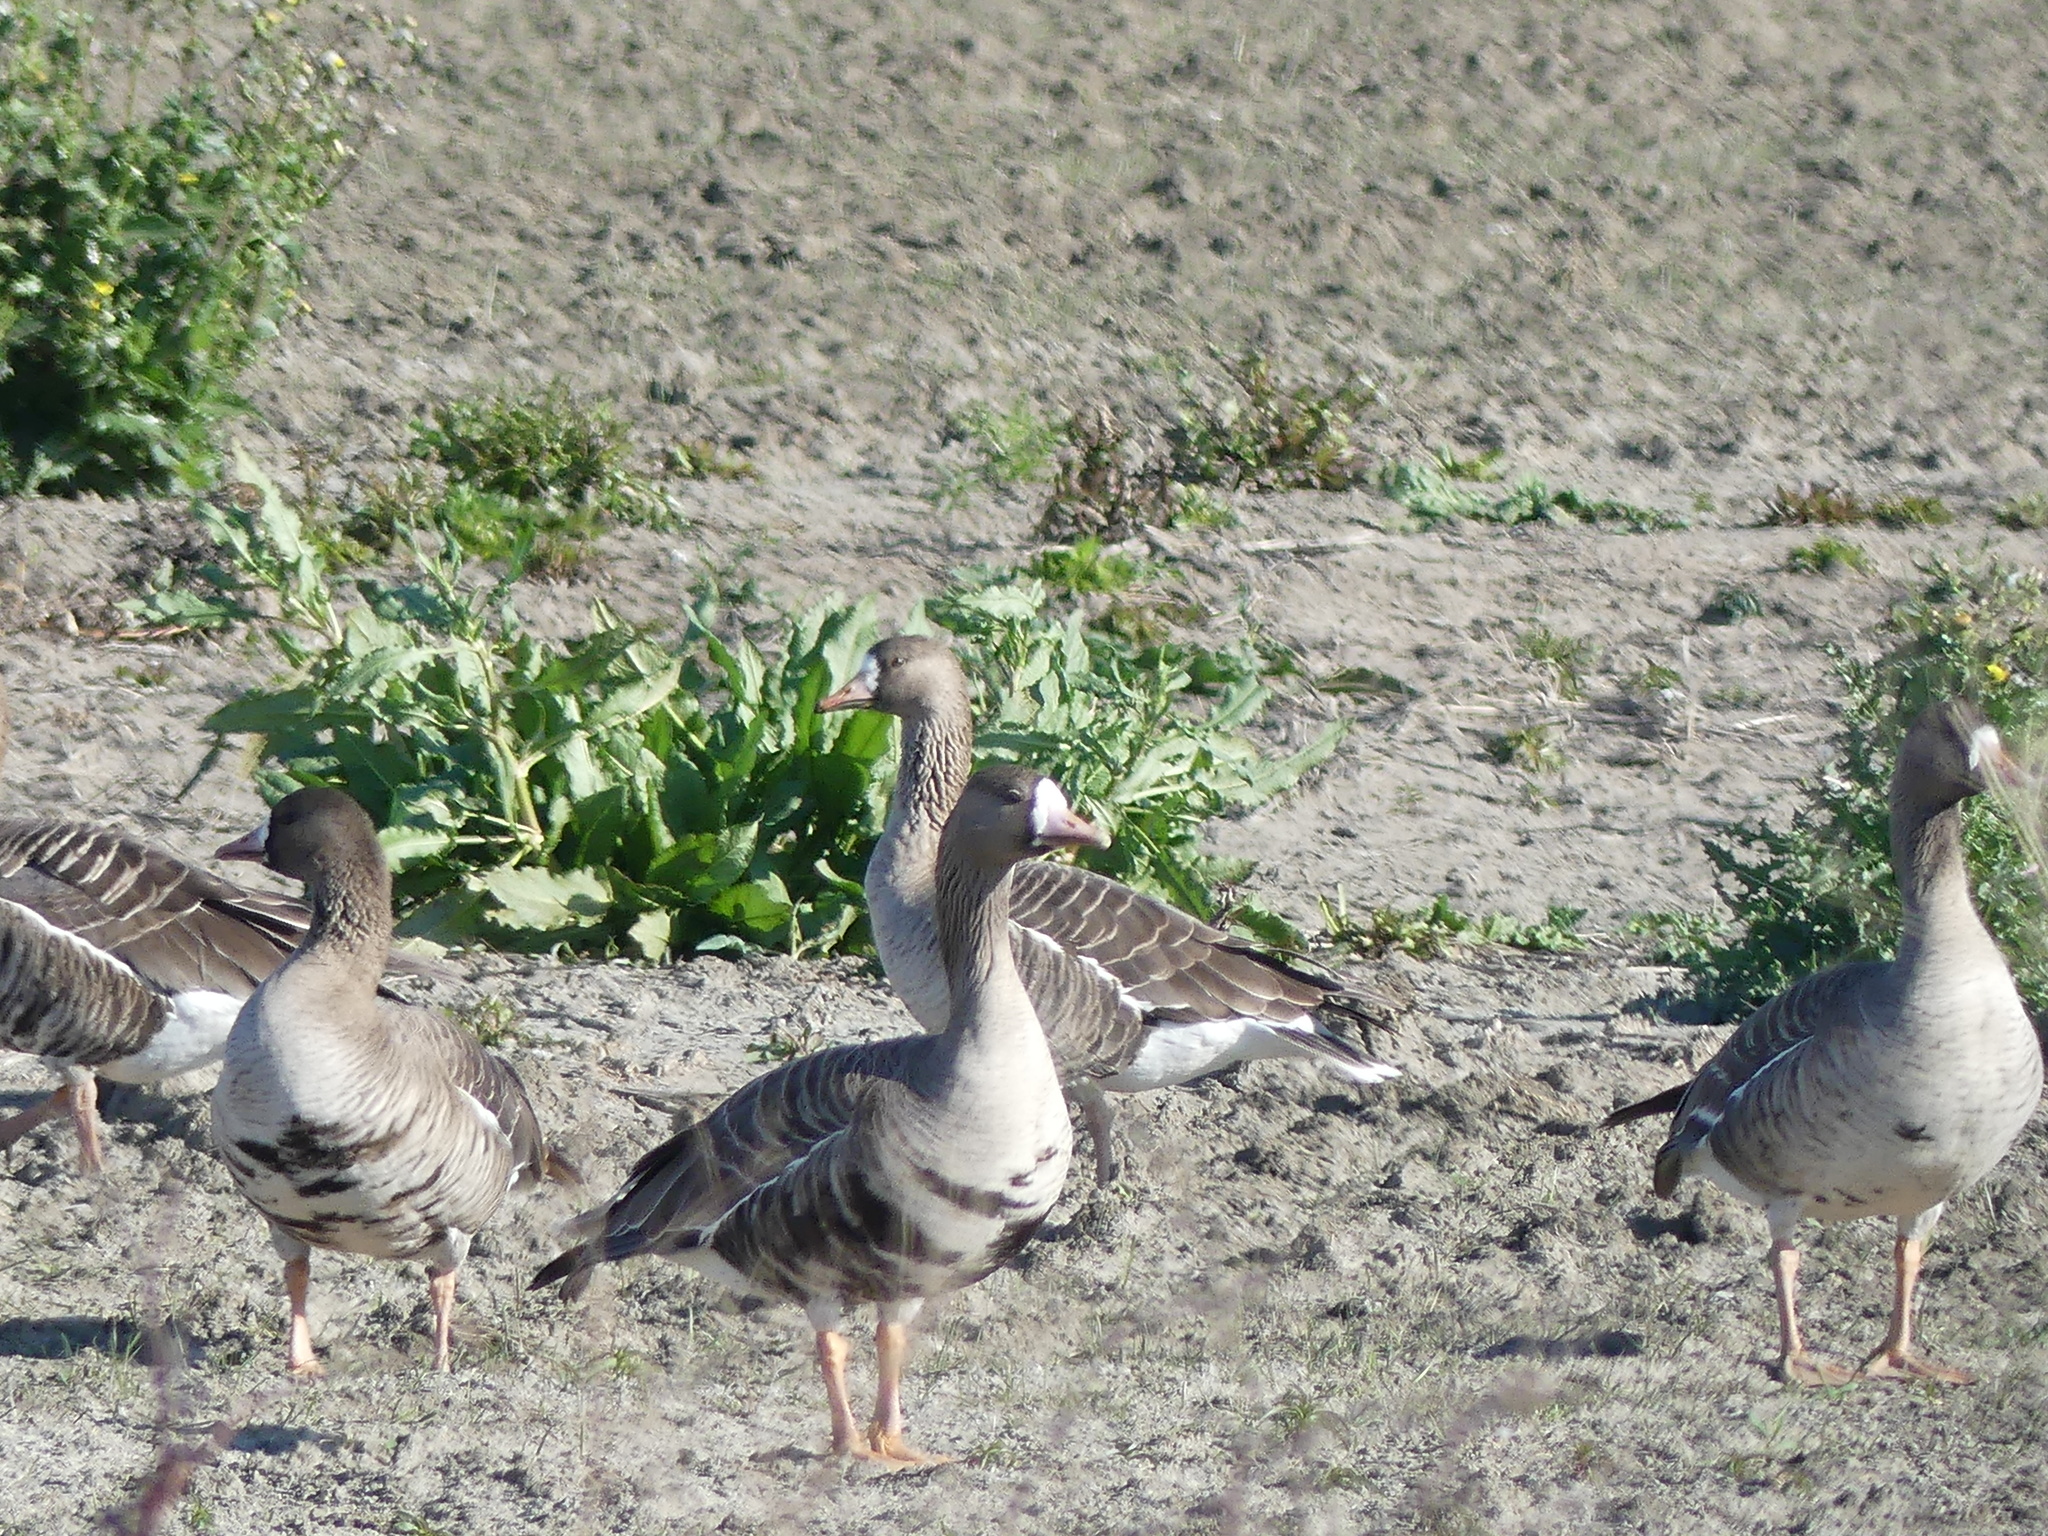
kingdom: Animalia
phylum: Chordata
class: Aves
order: Anseriformes
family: Anatidae
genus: Anser
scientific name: Anser albifrons
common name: Greater white-fronted goose
